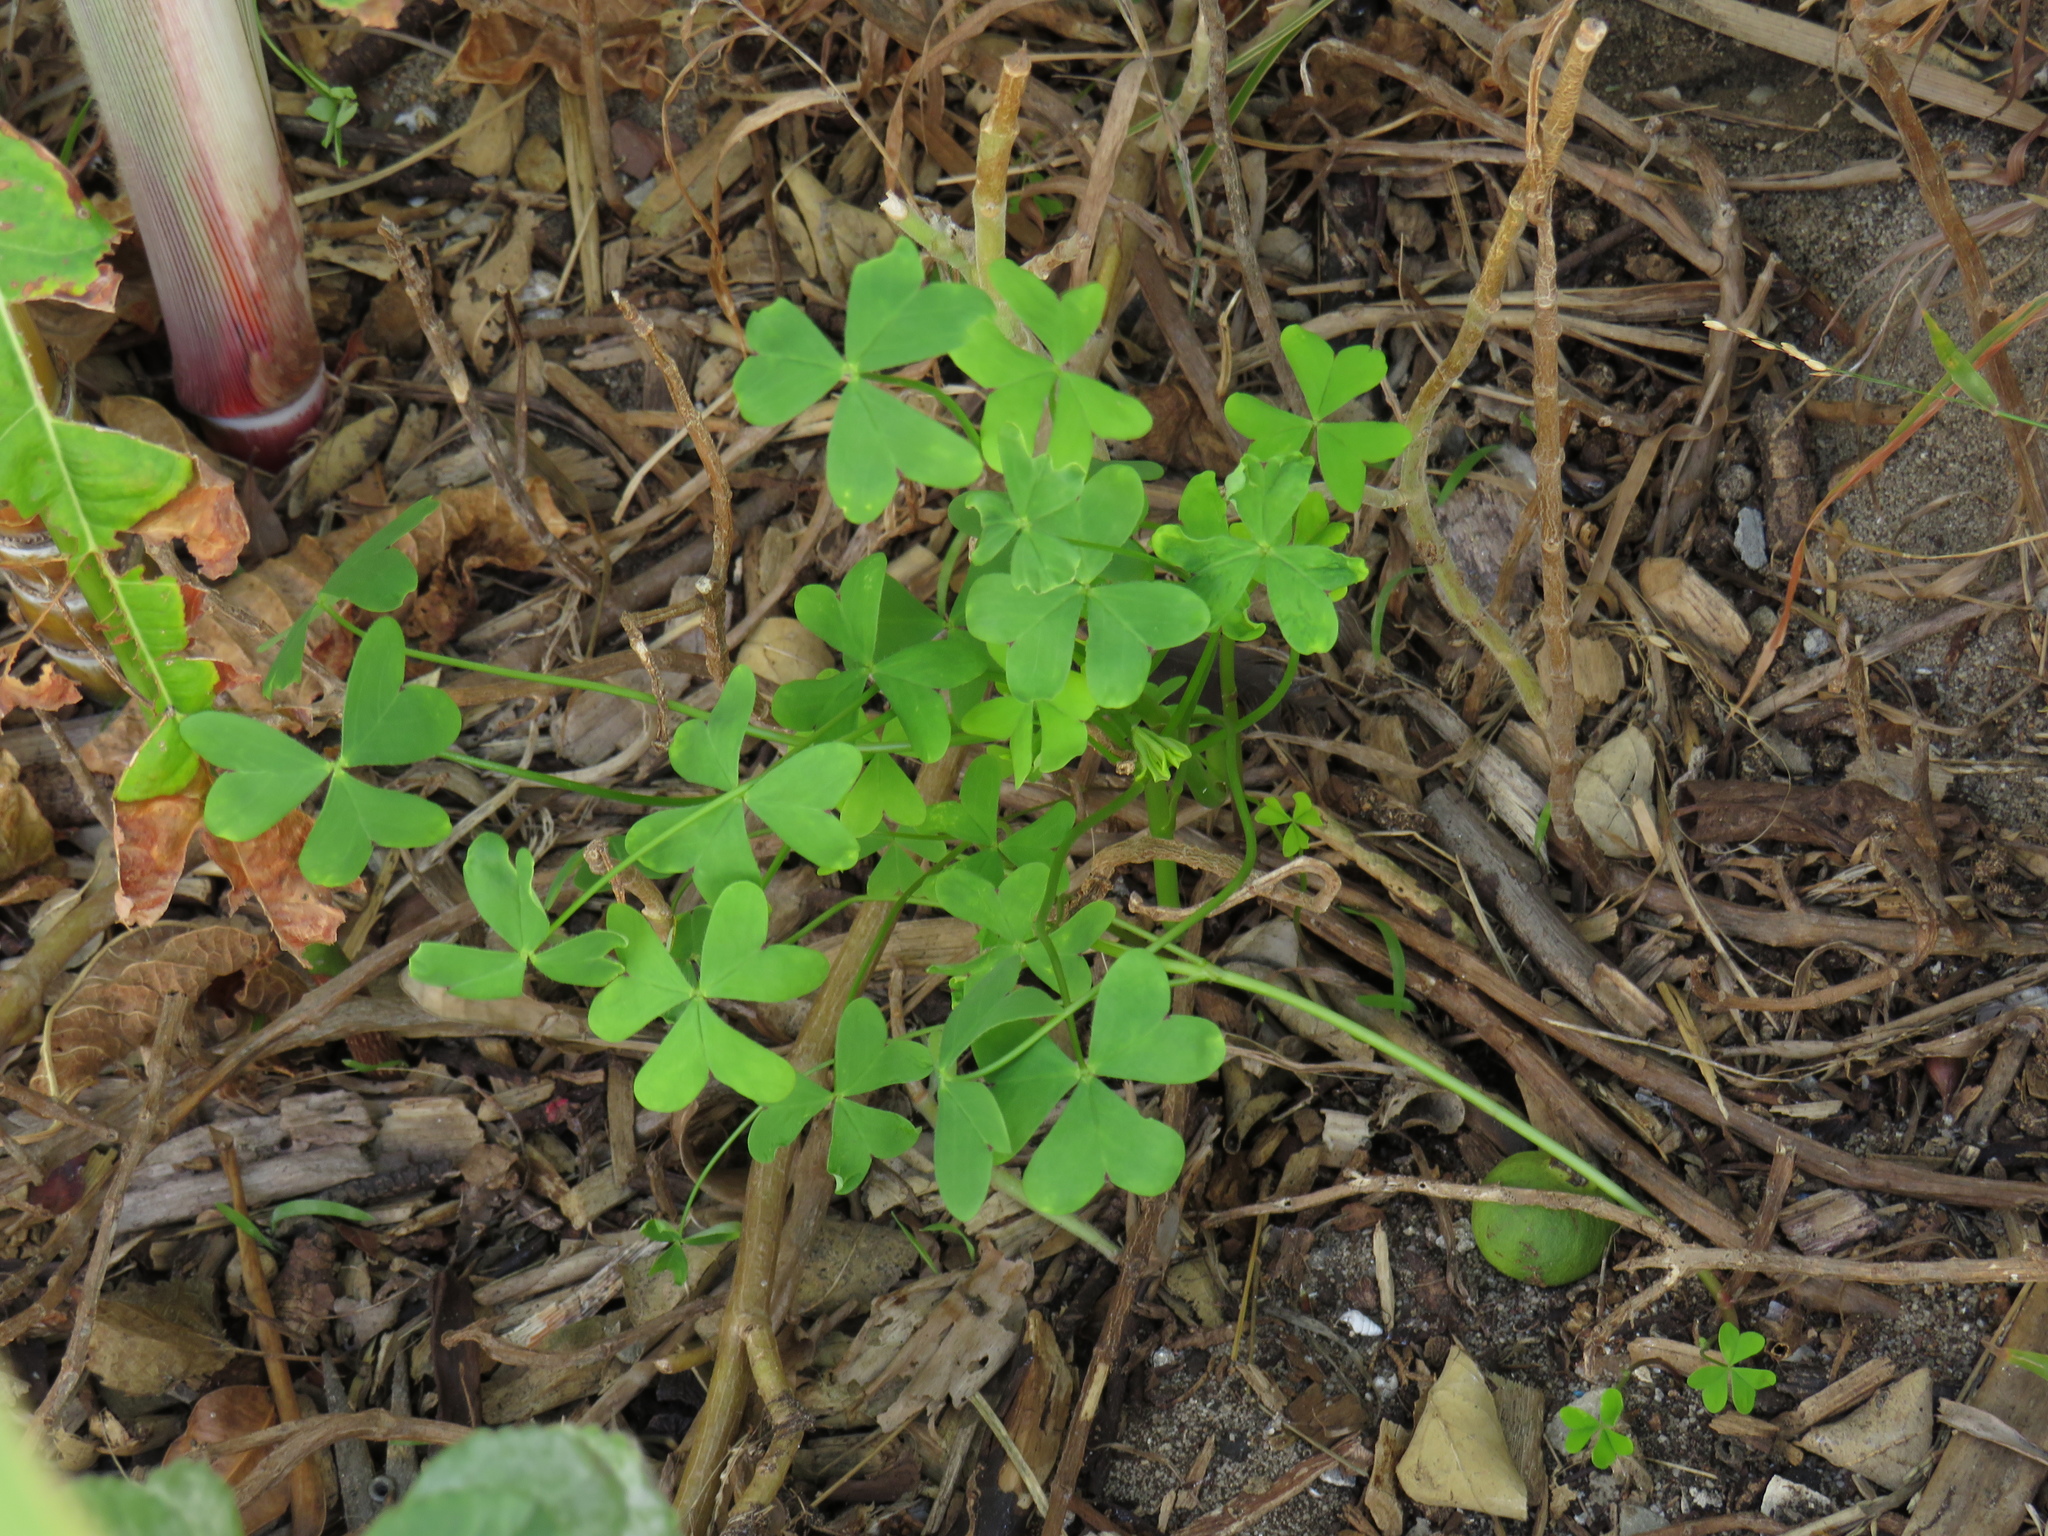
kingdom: Plantae
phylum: Tracheophyta
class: Magnoliopsida
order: Oxalidales
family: Oxalidaceae
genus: Oxalis
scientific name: Oxalis pes-caprae
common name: Bermuda-buttercup
